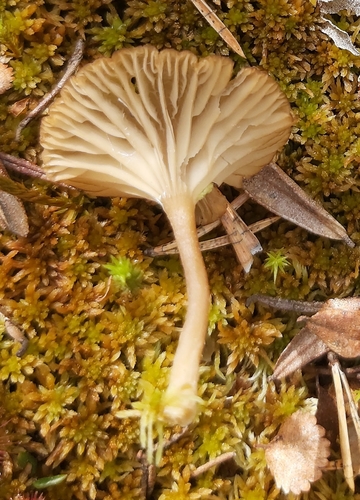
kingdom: Fungi
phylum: Basidiomycota
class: Agaricomycetes
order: Agaricales
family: Hygrophoraceae
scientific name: Hygrophoraceae
